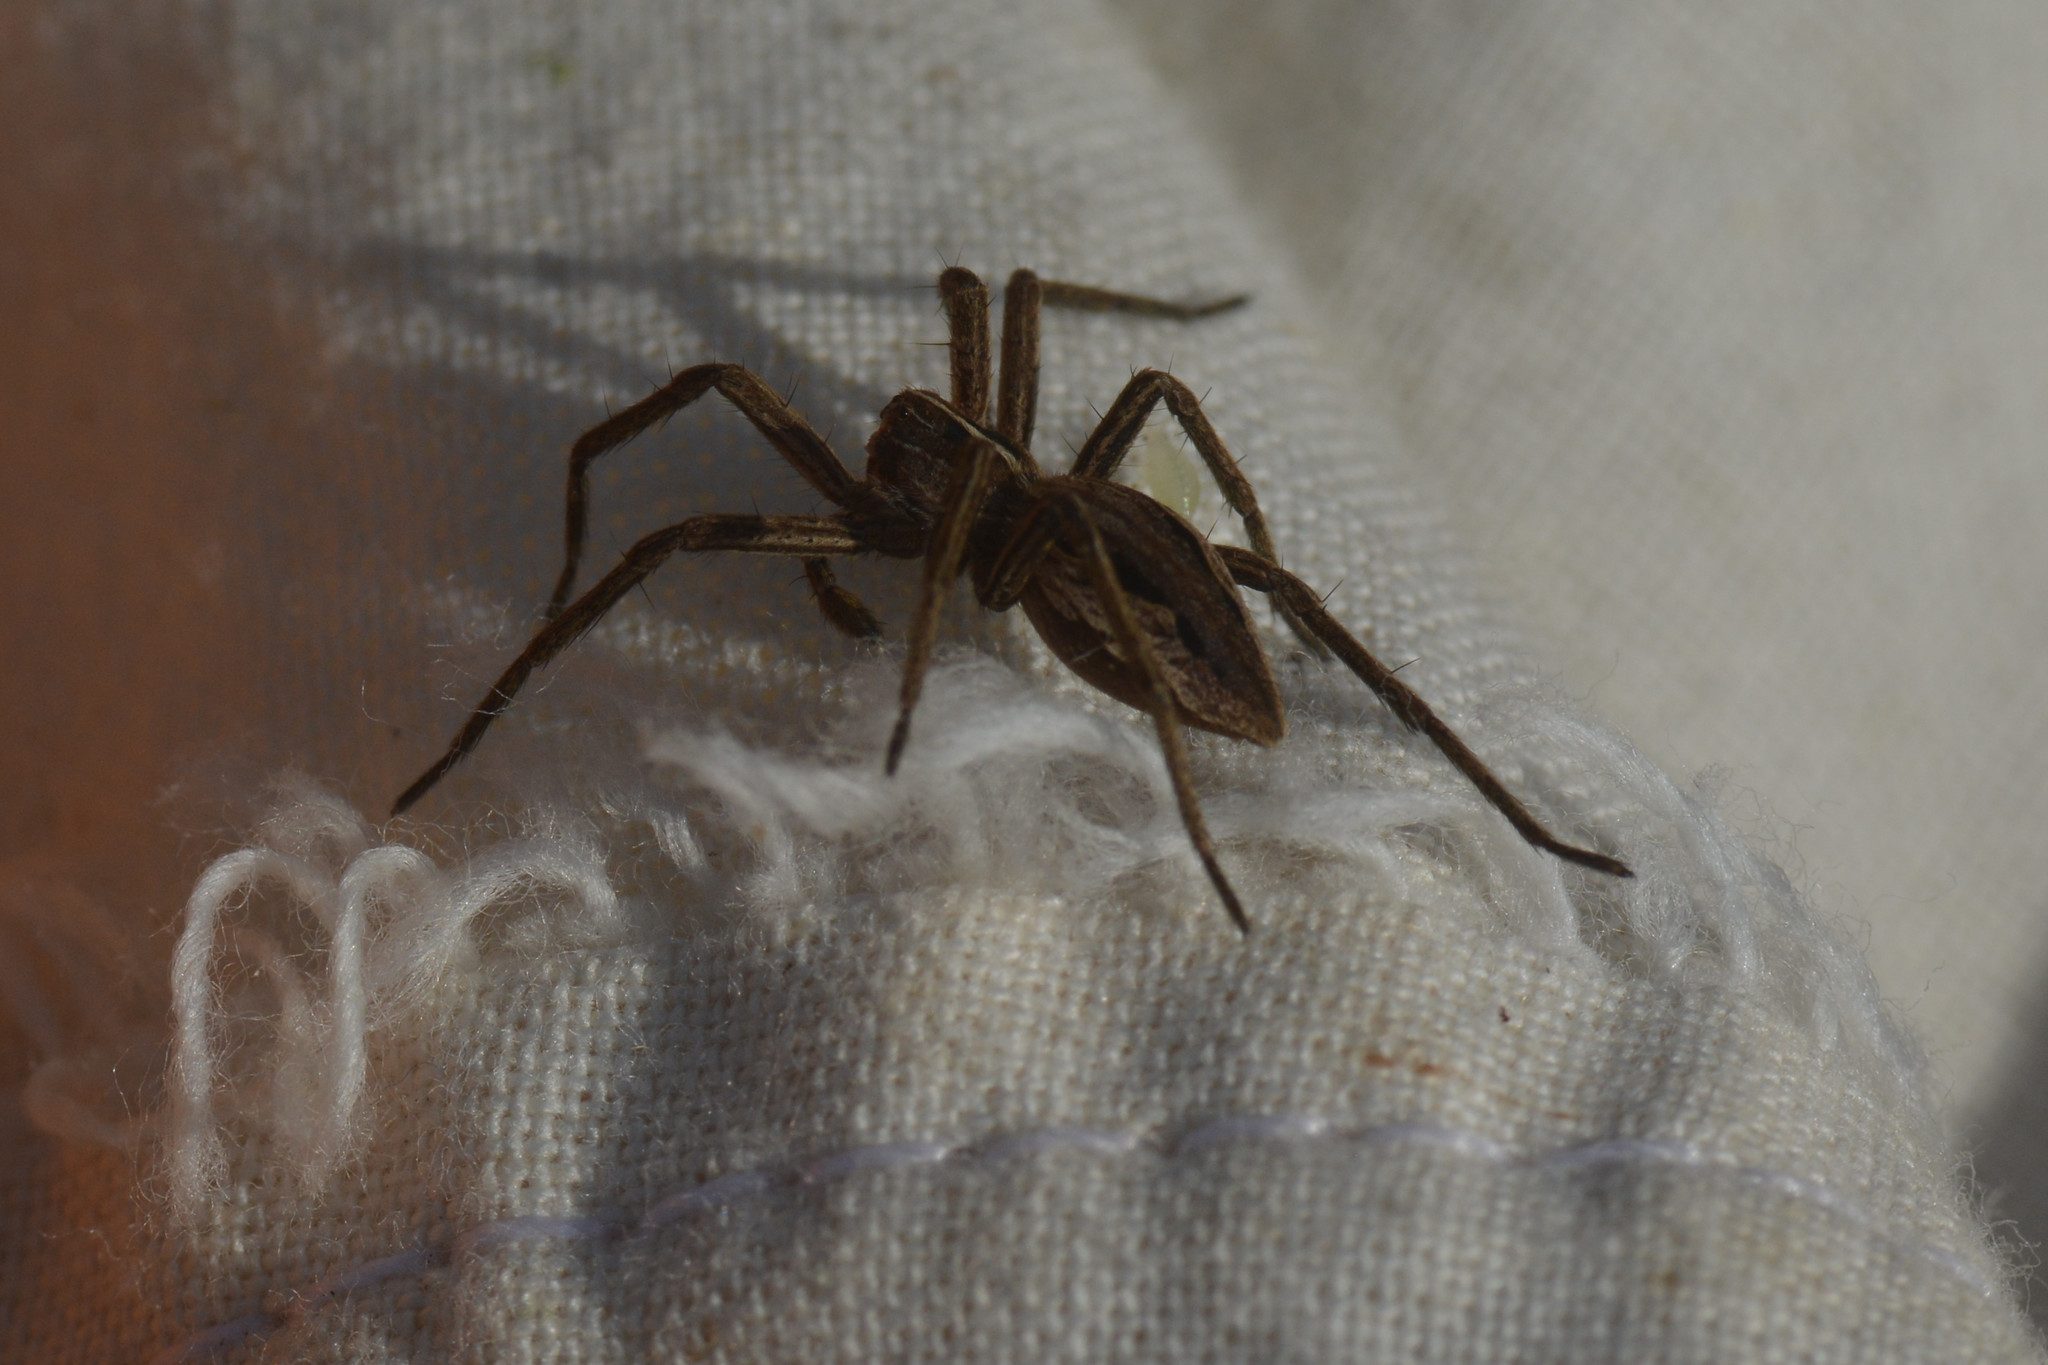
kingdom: Animalia
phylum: Arthropoda
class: Arachnida
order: Araneae
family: Pisauridae
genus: Pisaura
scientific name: Pisaura mirabilis
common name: Tent spider
